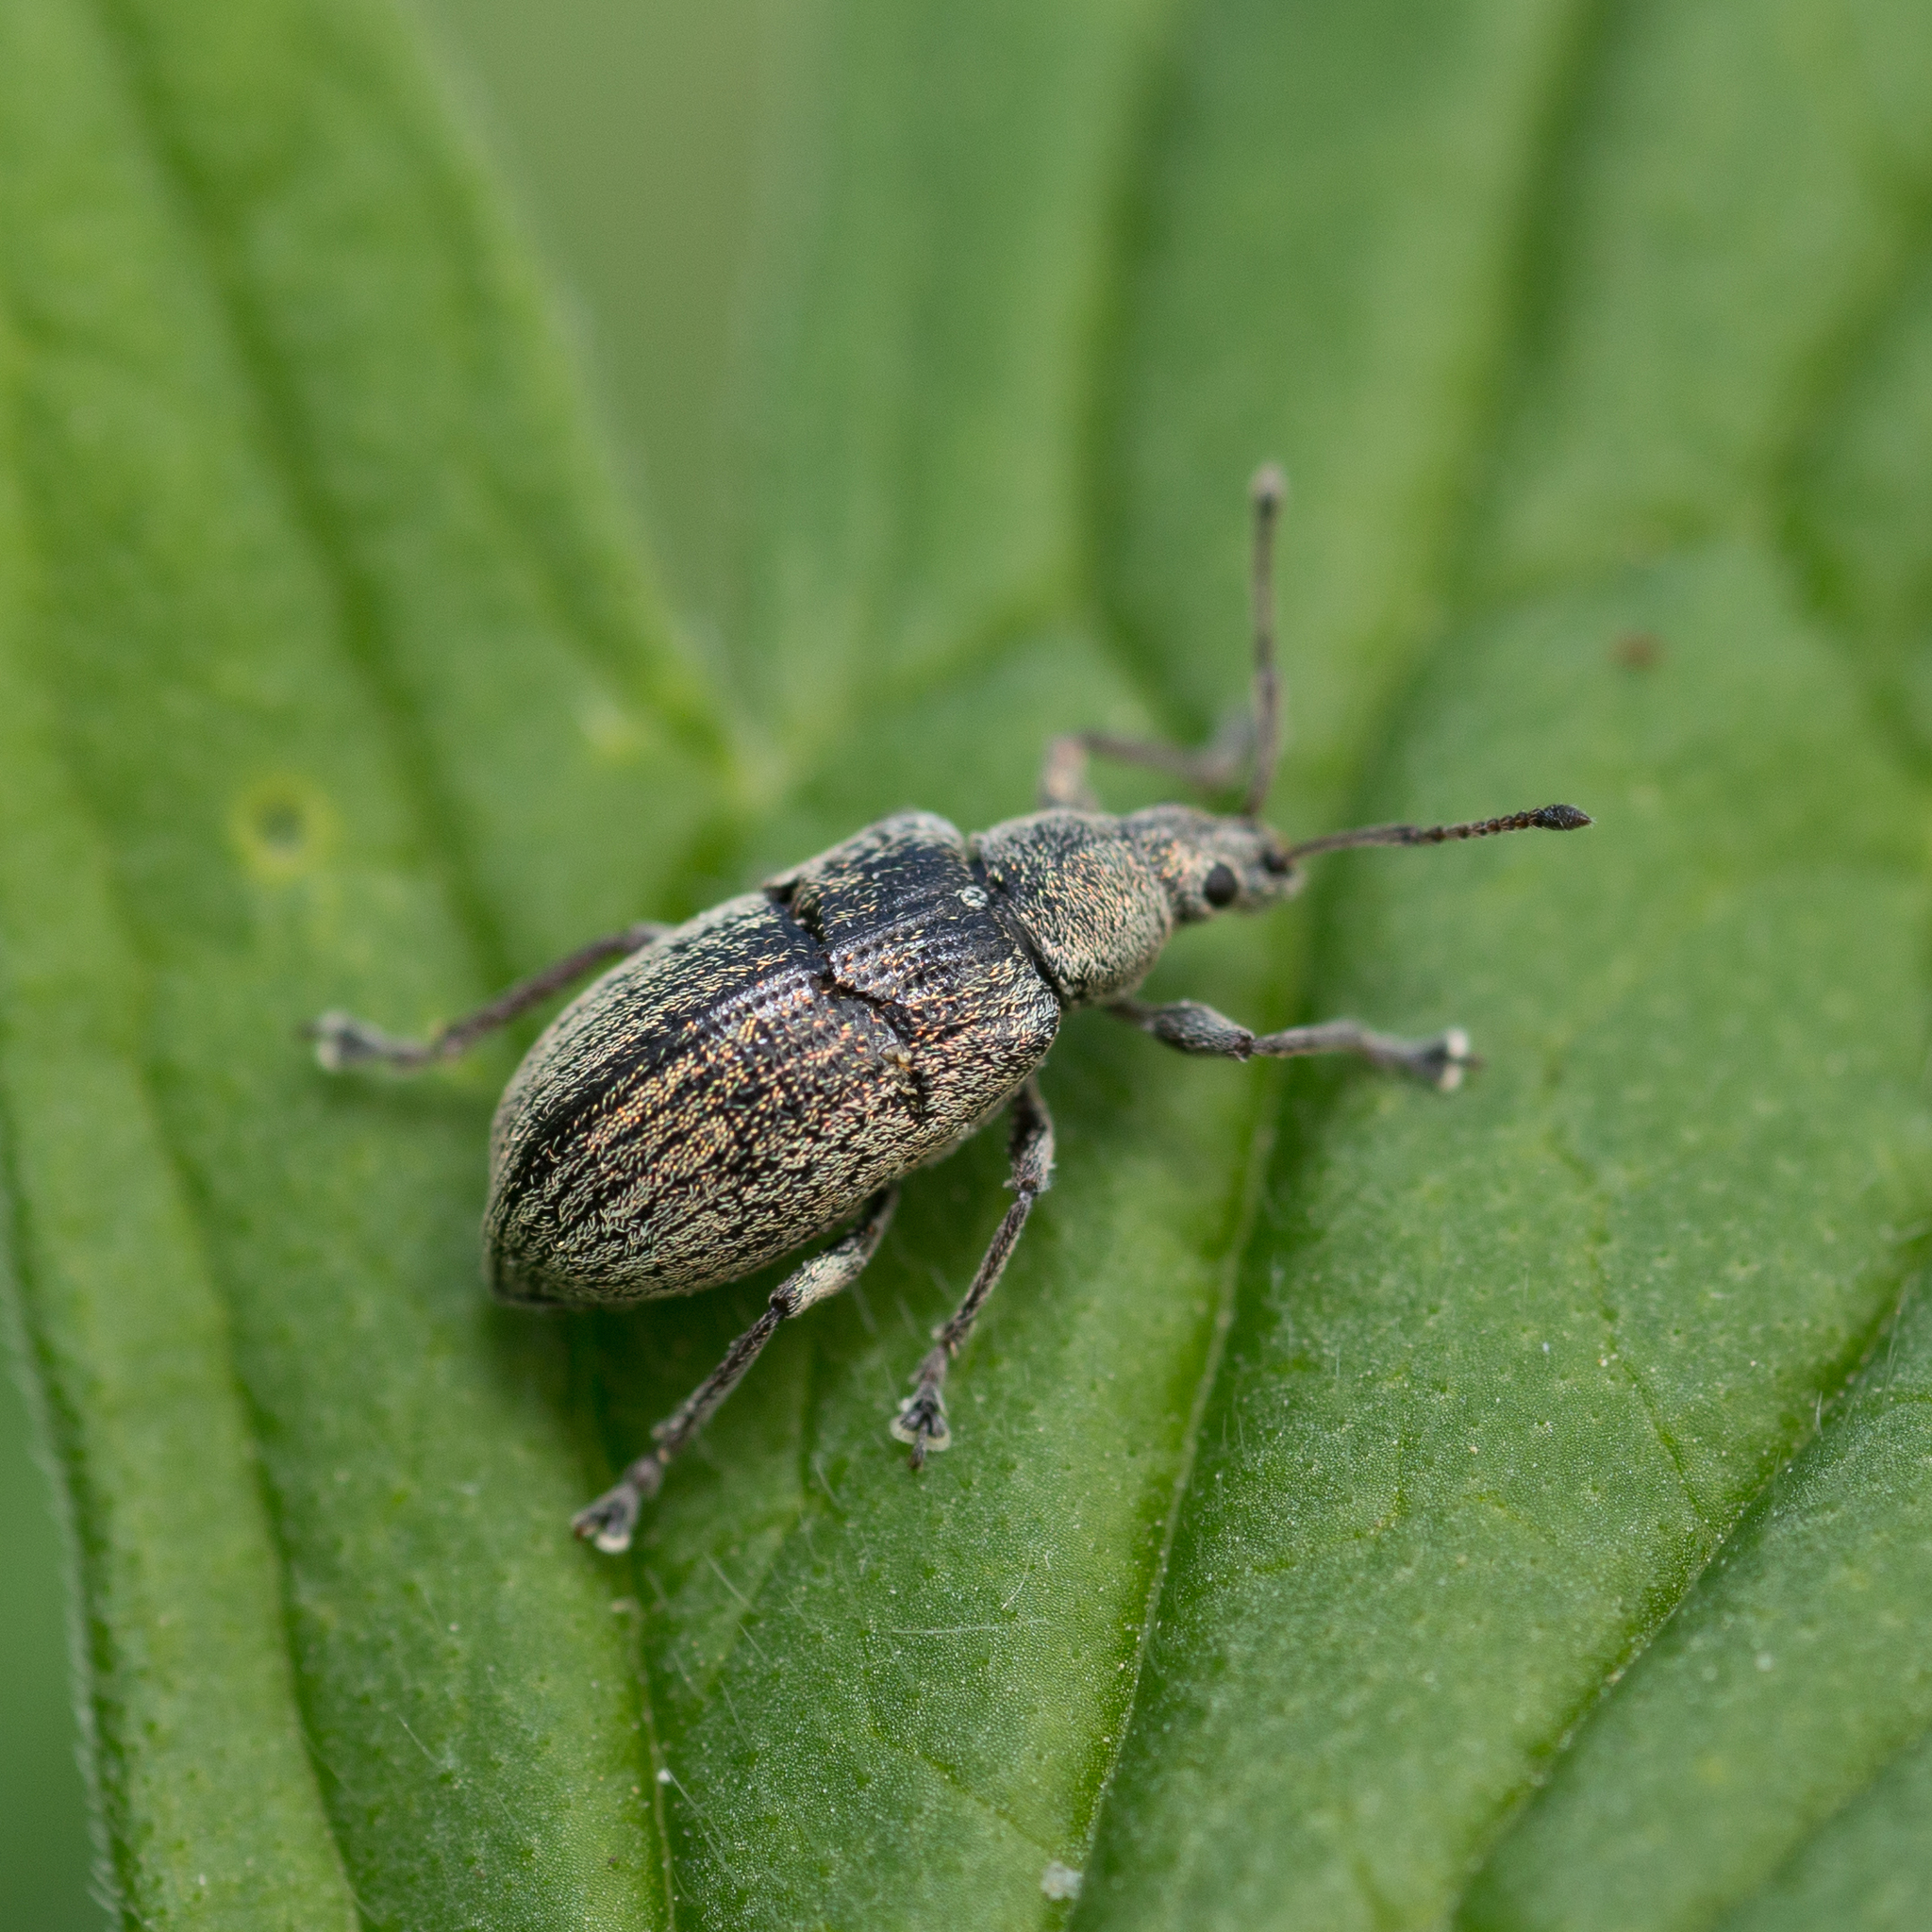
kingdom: Animalia
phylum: Arthropoda
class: Insecta
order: Coleoptera
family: Curculionidae
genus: Phyllobius
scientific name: Phyllobius pyri
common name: Common leaf weevil
